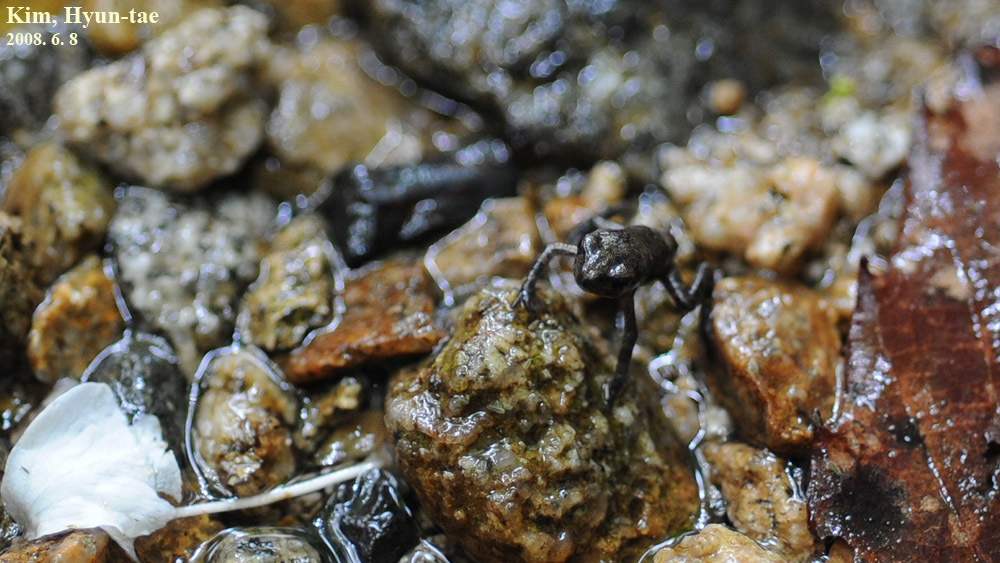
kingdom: Animalia
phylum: Chordata
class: Amphibia
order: Anura
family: Bufonidae
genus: Bufo
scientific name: Bufo stejnegeri
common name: Water toad
